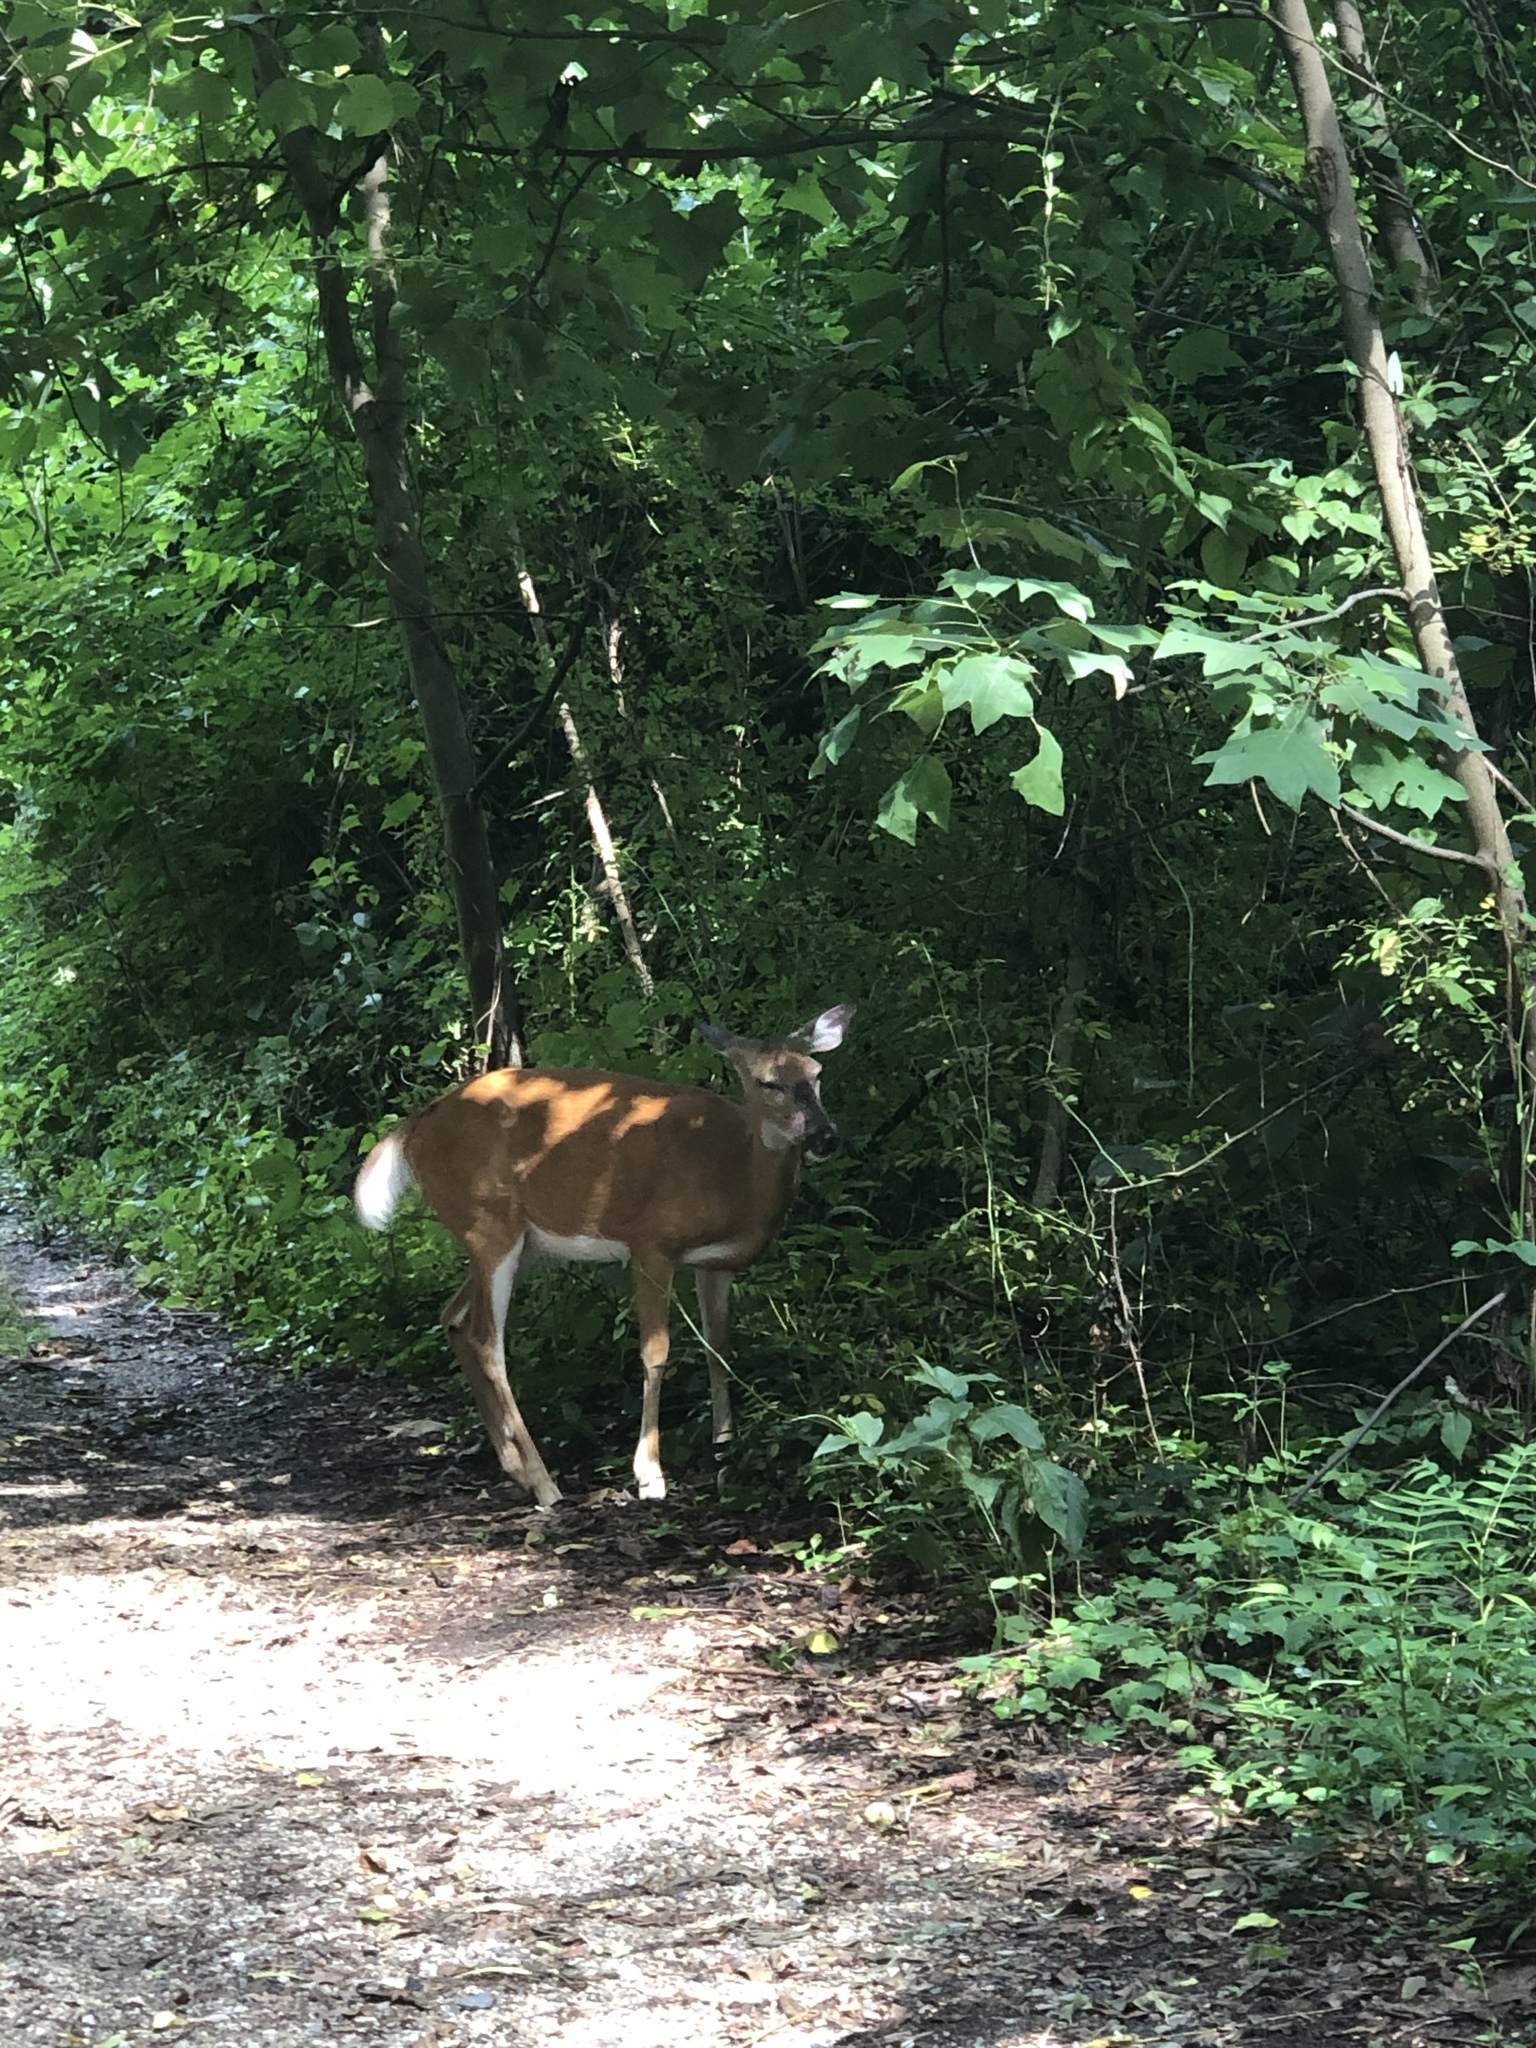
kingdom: Animalia
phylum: Chordata
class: Mammalia
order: Artiodactyla
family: Cervidae
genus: Odocoileus
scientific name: Odocoileus virginianus
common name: White-tailed deer
